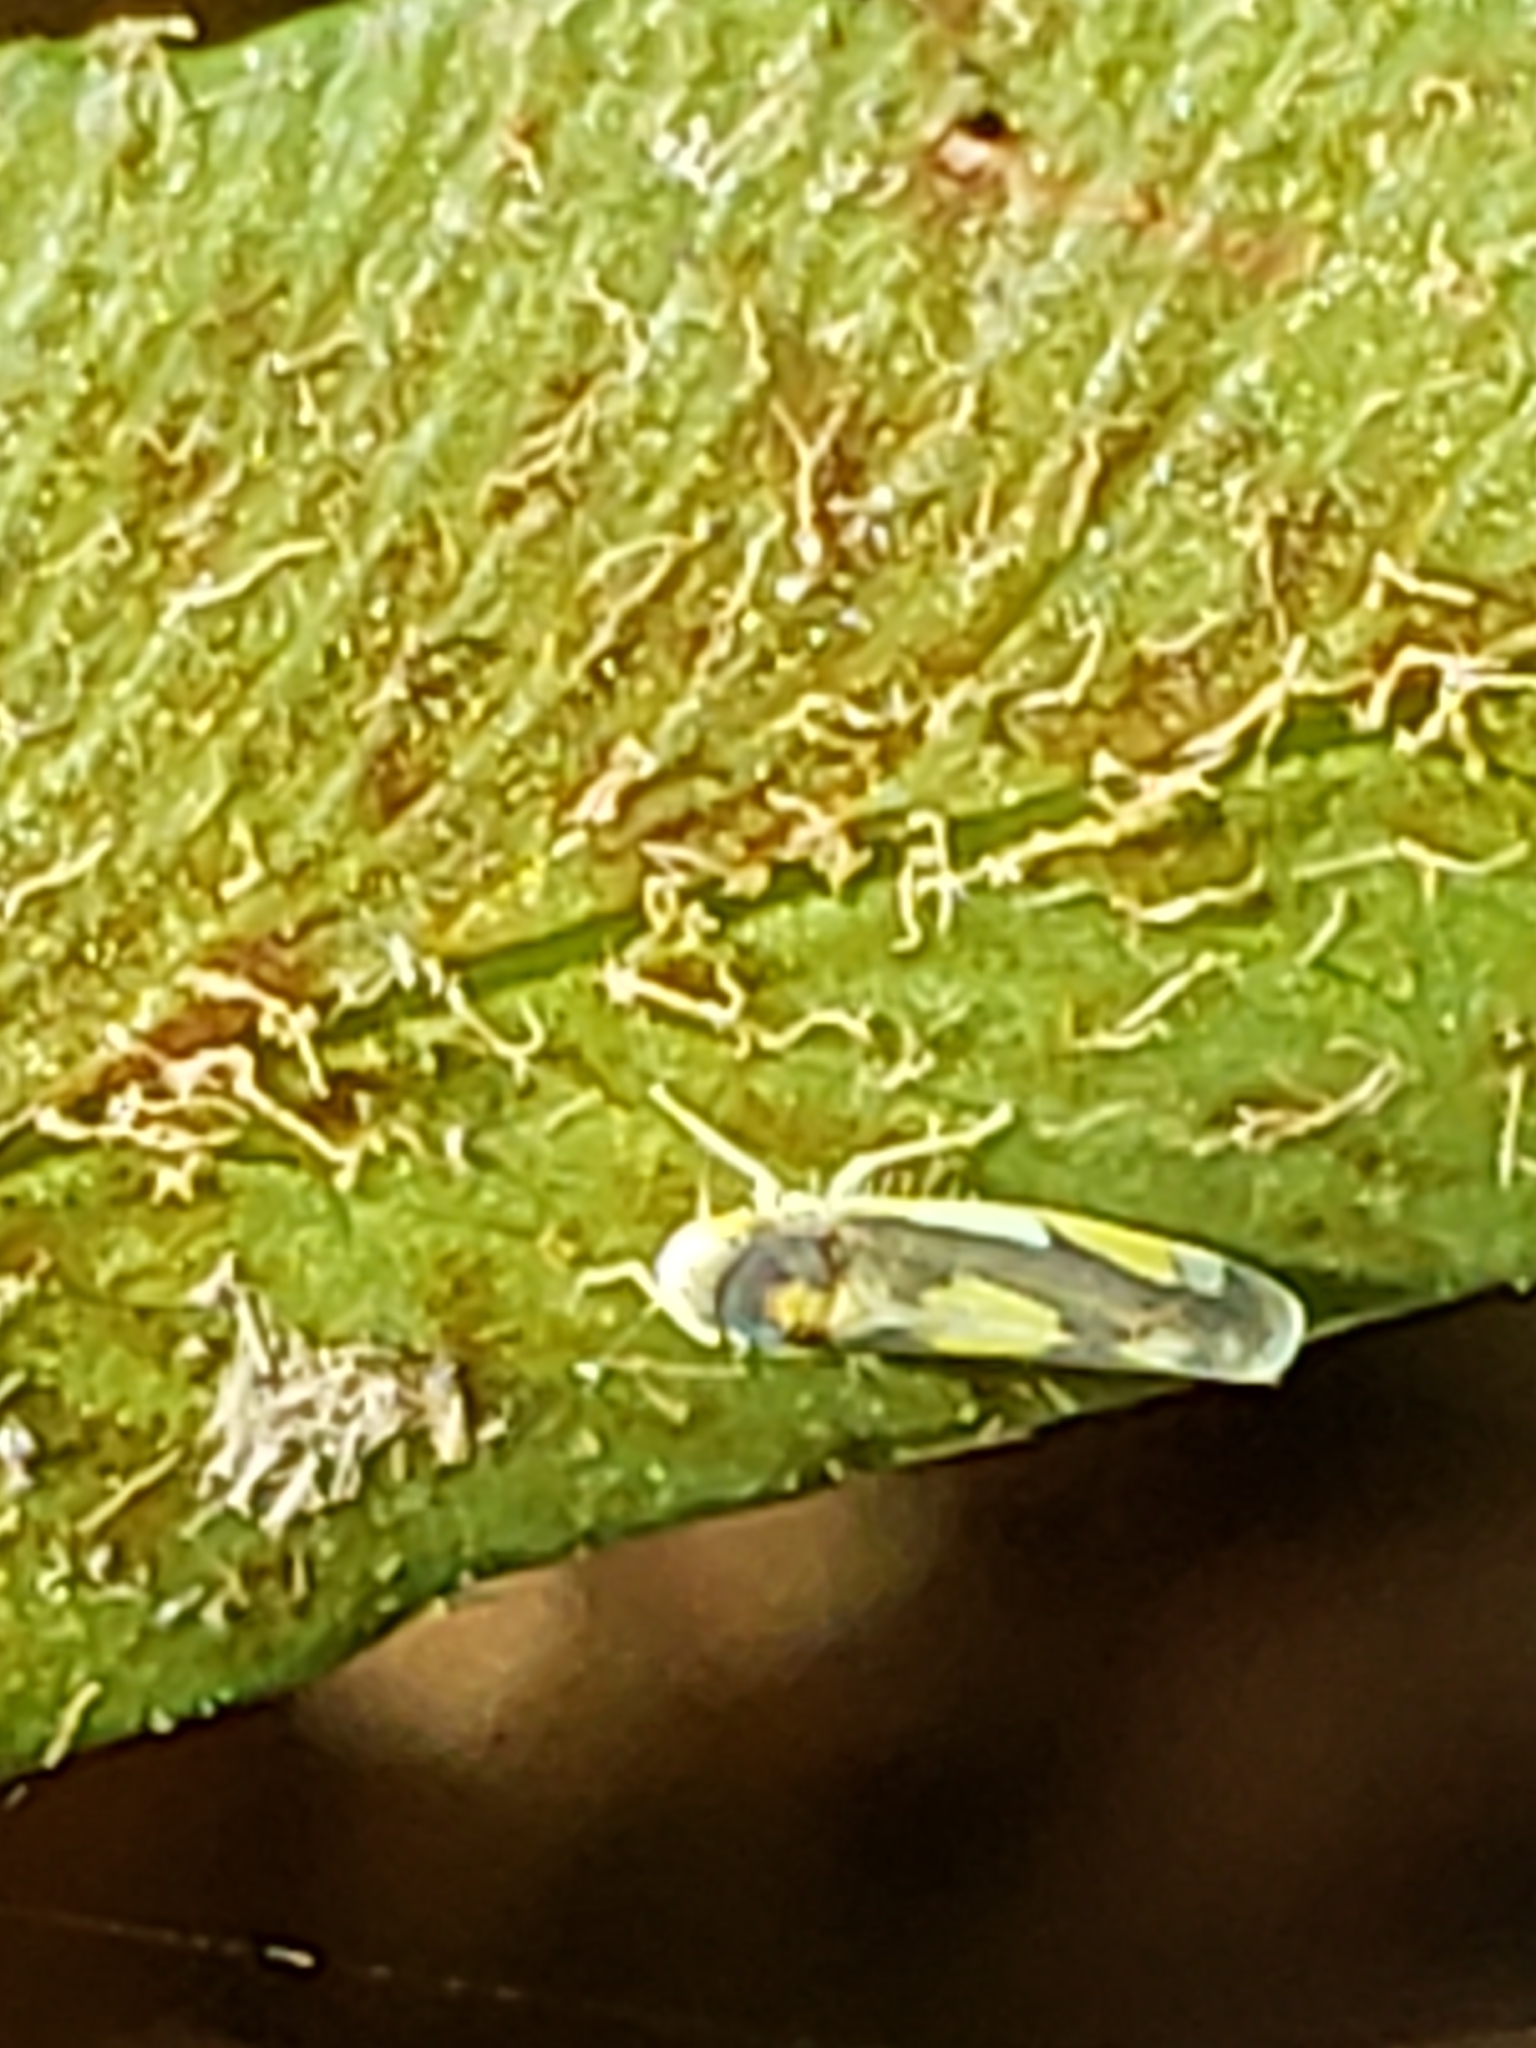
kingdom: Animalia
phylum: Arthropoda
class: Insecta
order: Hemiptera
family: Cicadellidae
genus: Eupteryx
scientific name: Eupteryx flavoscuta
